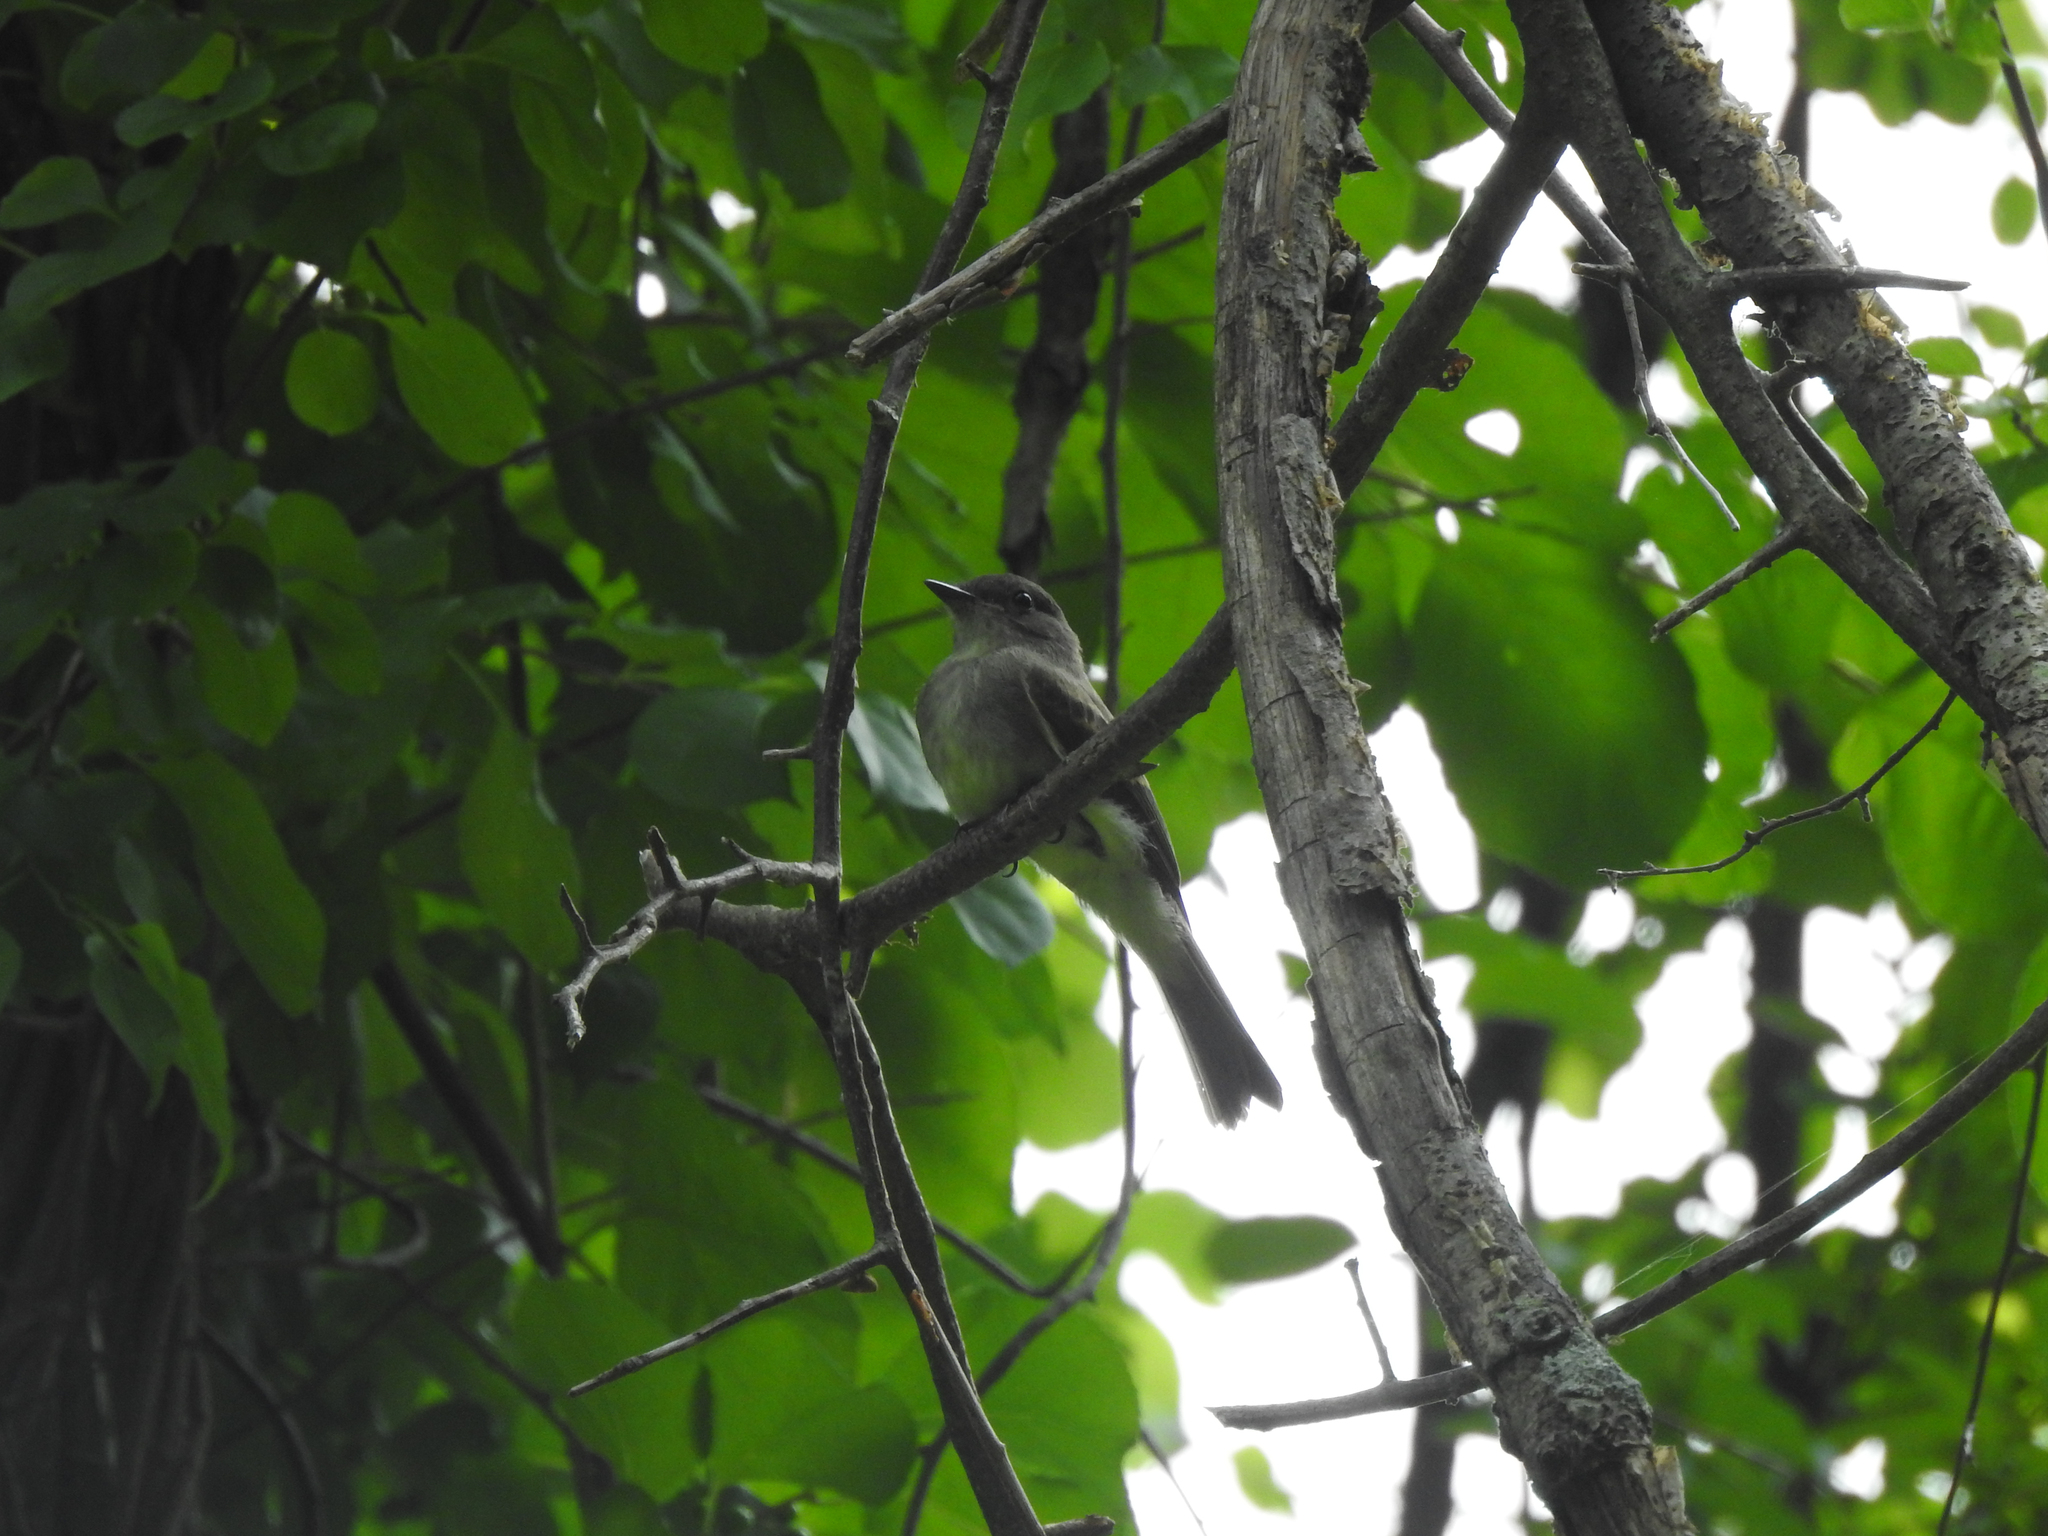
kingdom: Animalia
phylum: Chordata
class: Aves
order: Passeriformes
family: Tyrannidae
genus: Sayornis
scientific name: Sayornis phoebe
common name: Eastern phoebe
